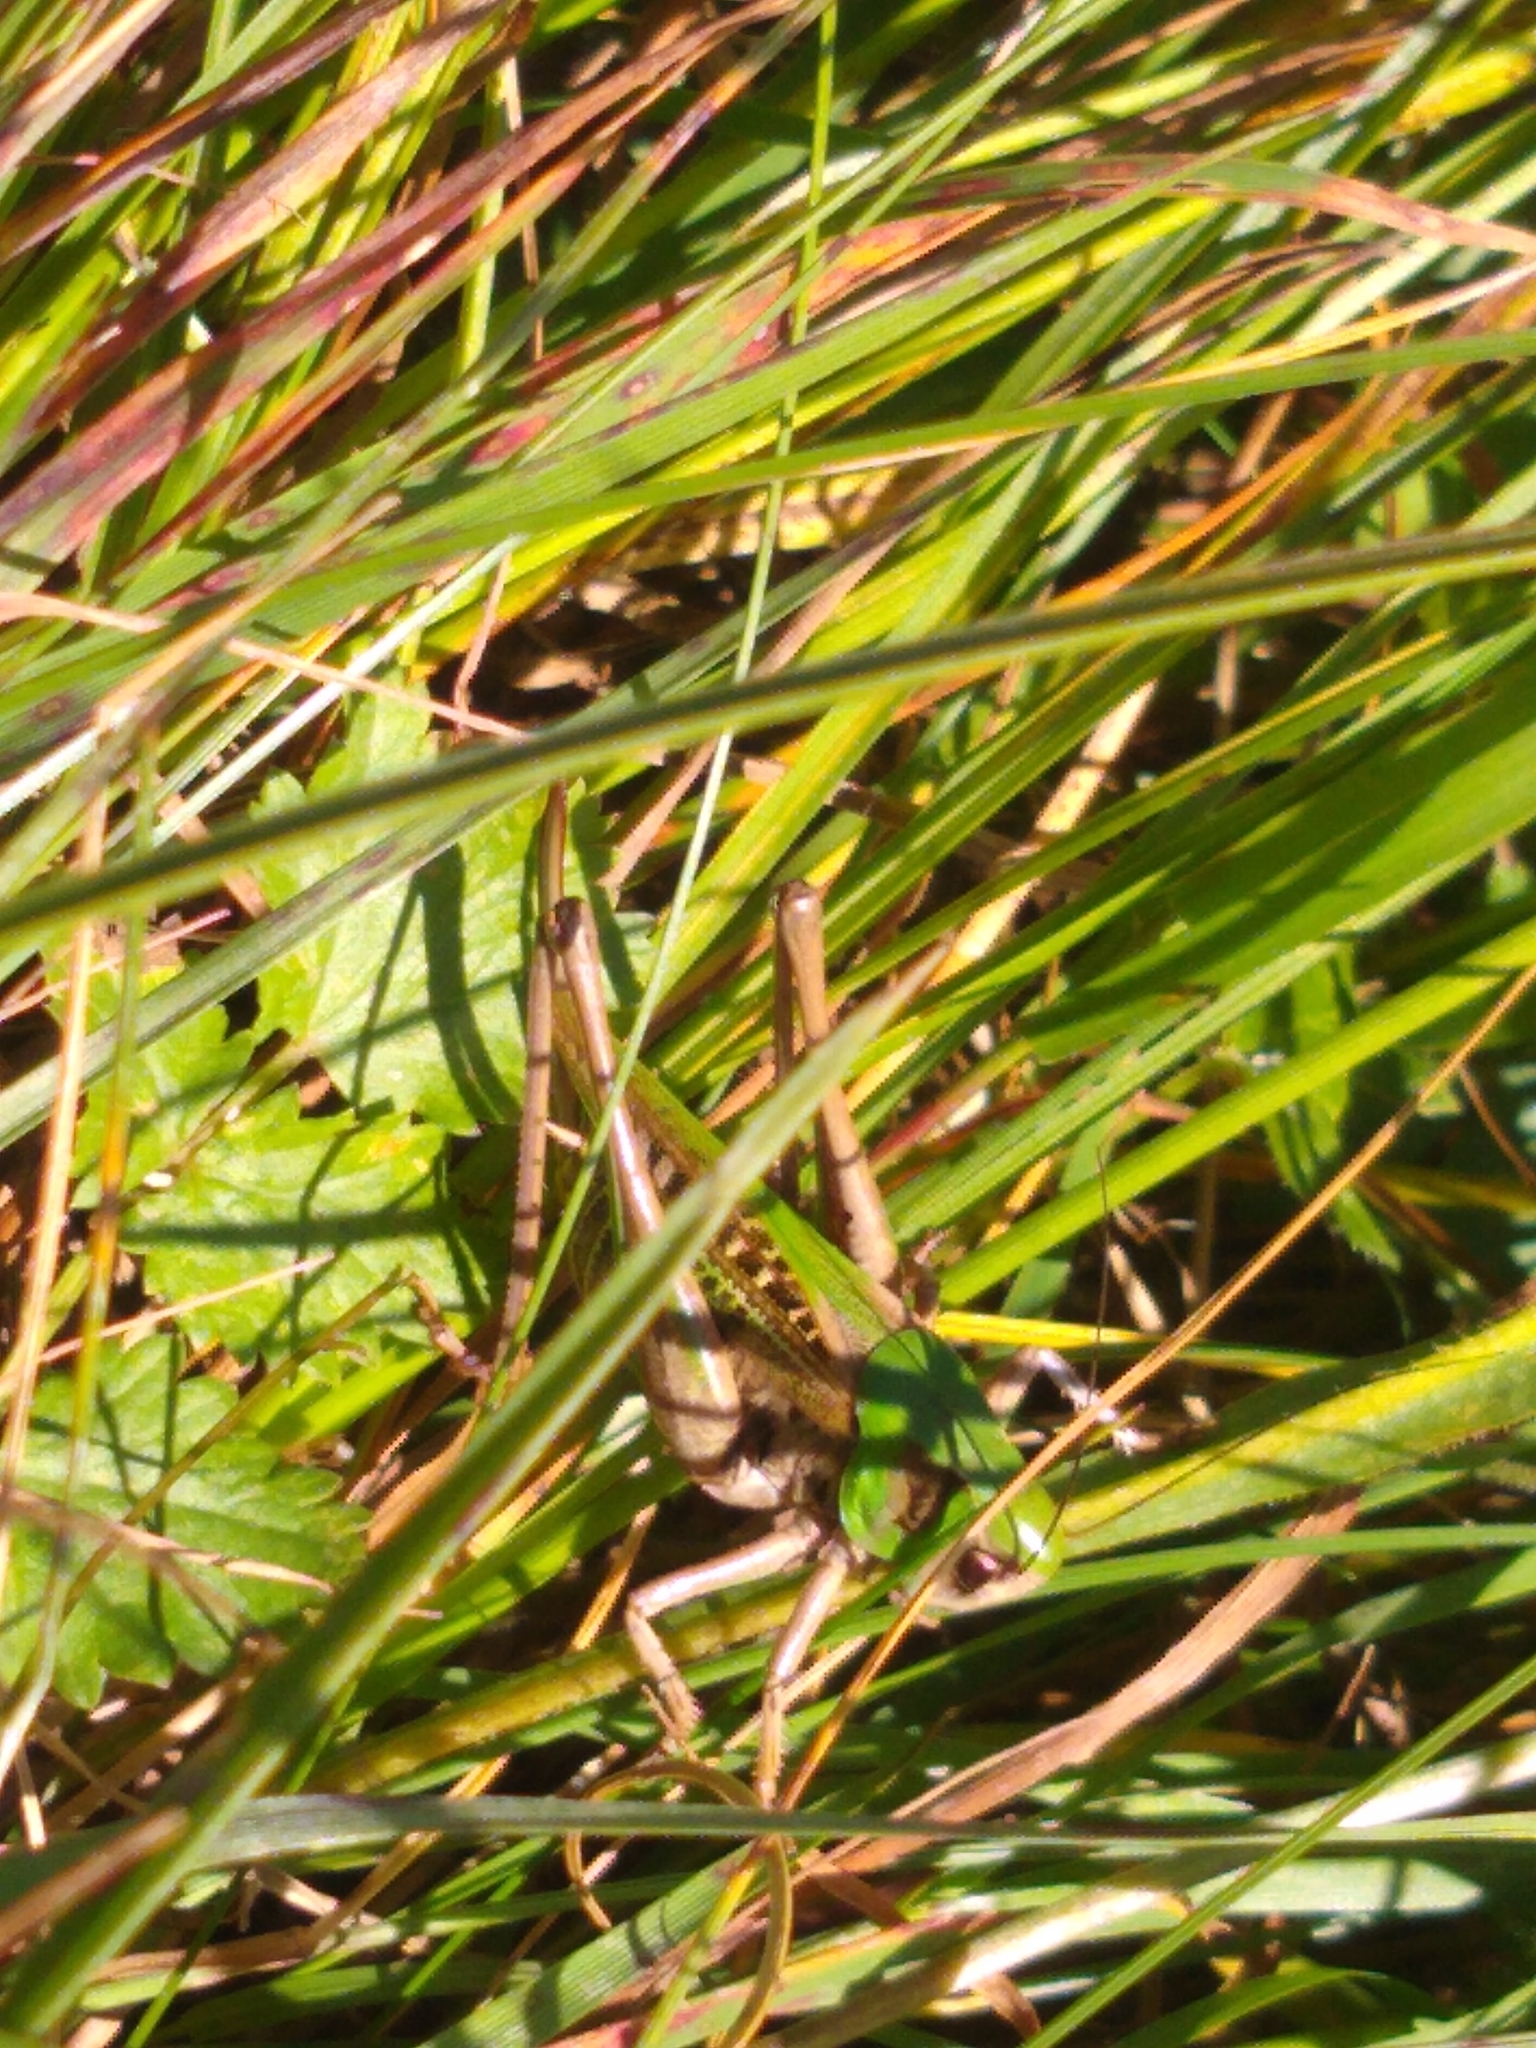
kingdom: Animalia
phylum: Arthropoda
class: Insecta
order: Orthoptera
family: Tettigoniidae
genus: Decticus
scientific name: Decticus verrucivorus
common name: Wart-biter
